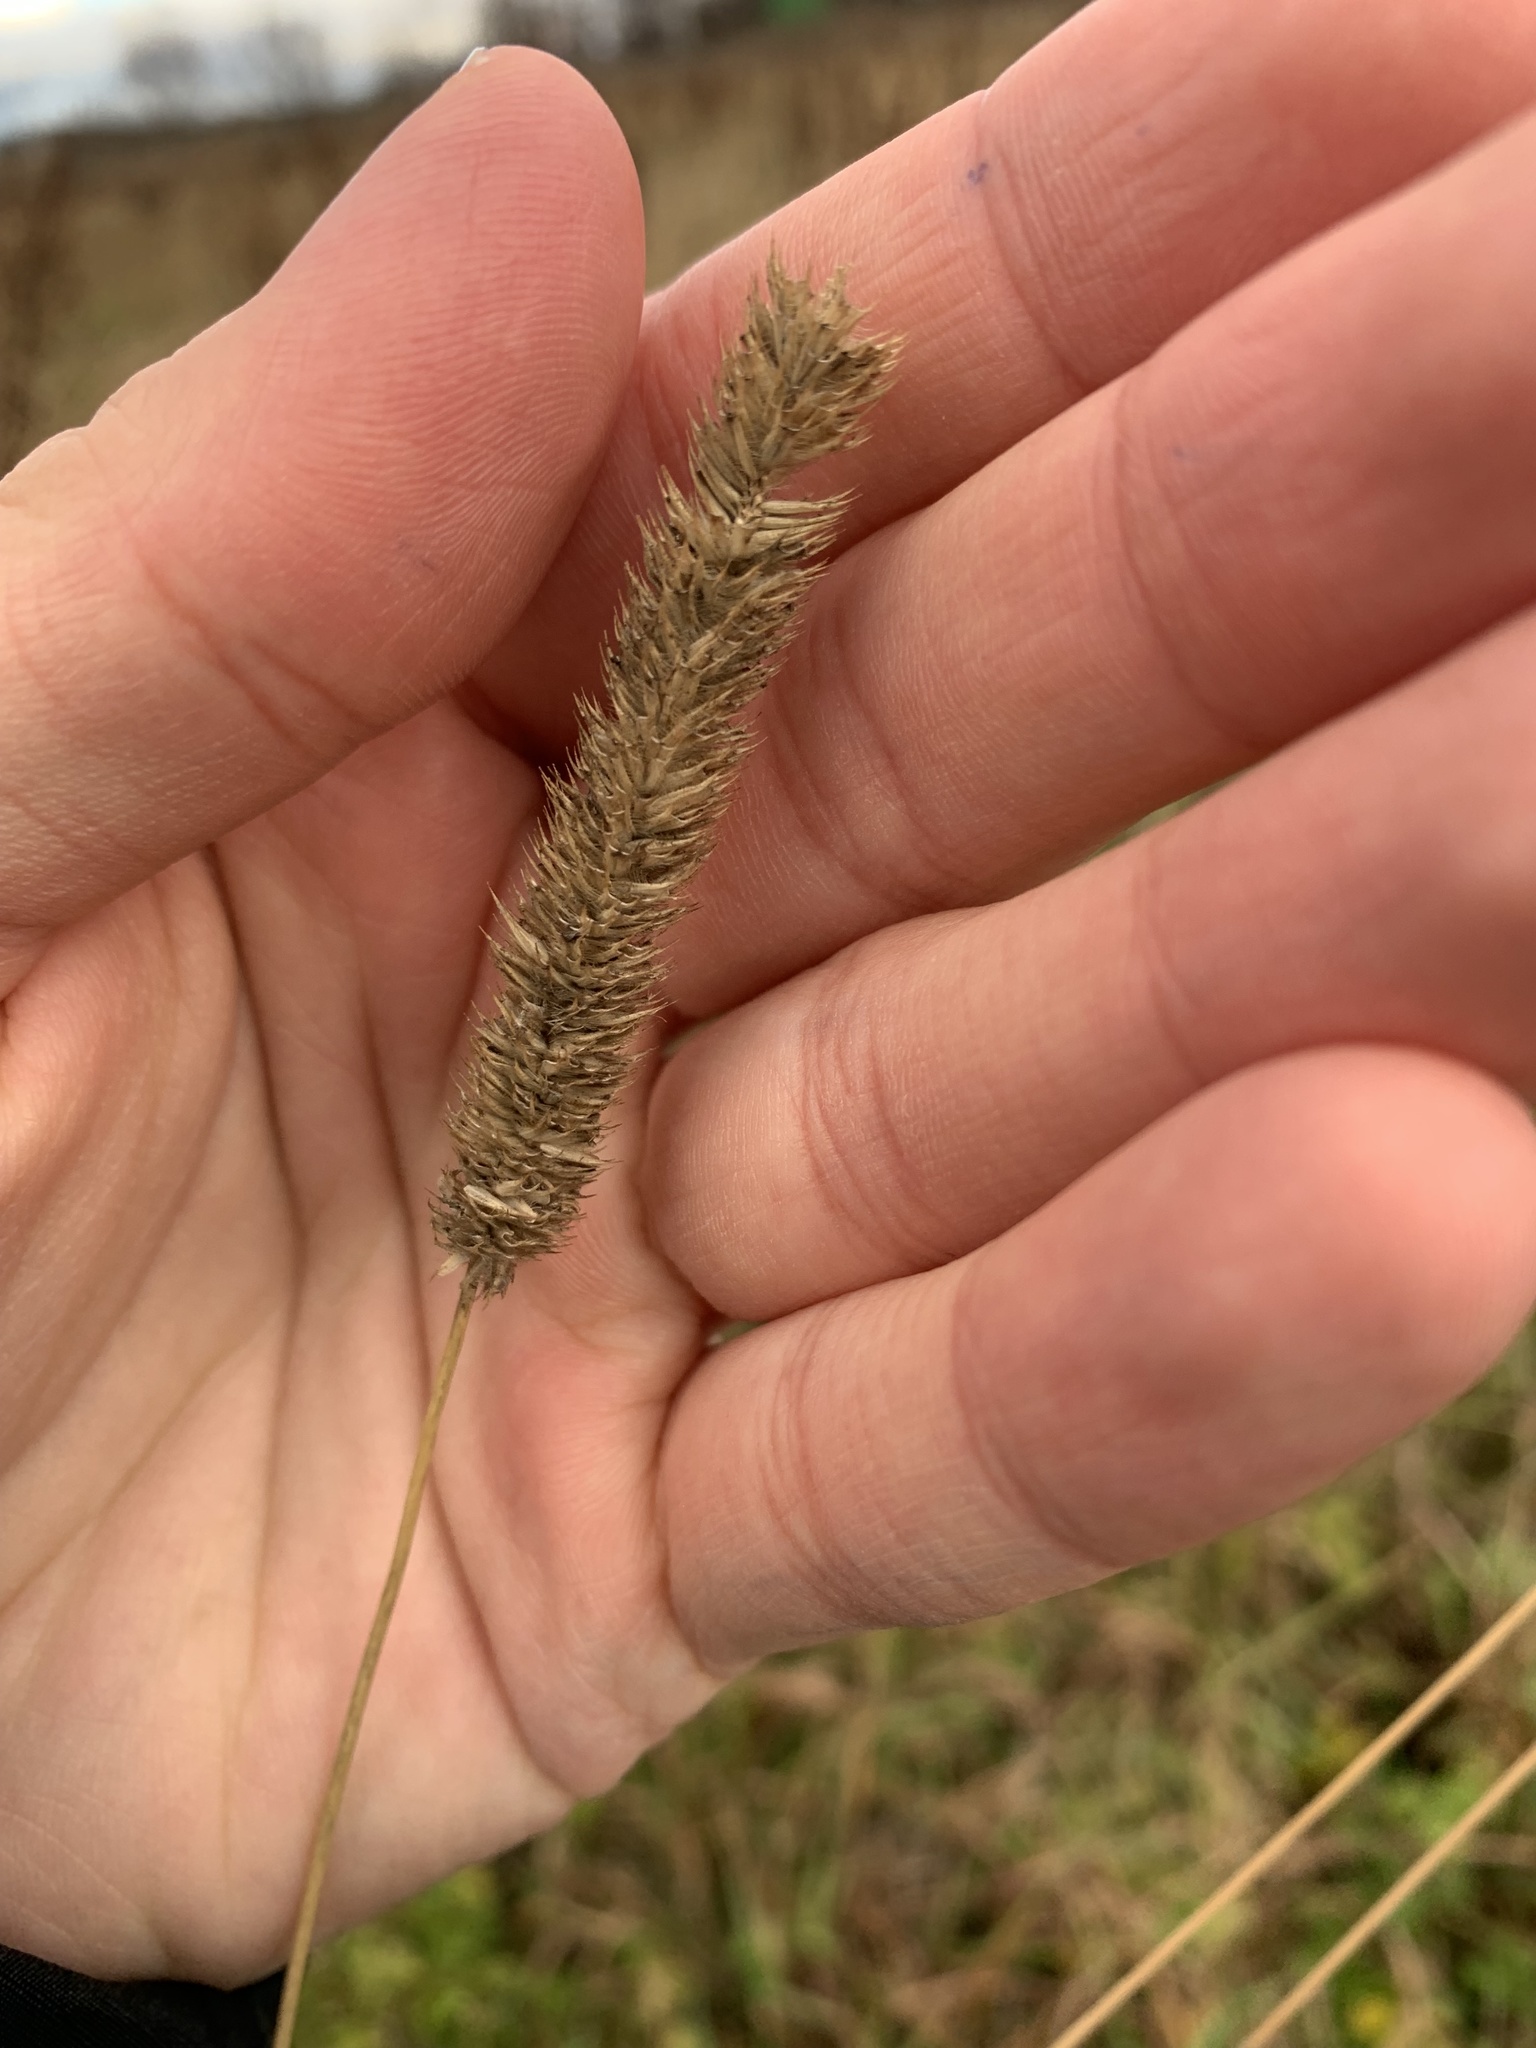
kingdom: Plantae
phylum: Tracheophyta
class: Liliopsida
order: Poales
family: Poaceae
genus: Phleum
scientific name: Phleum pratense
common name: Timothy grass
